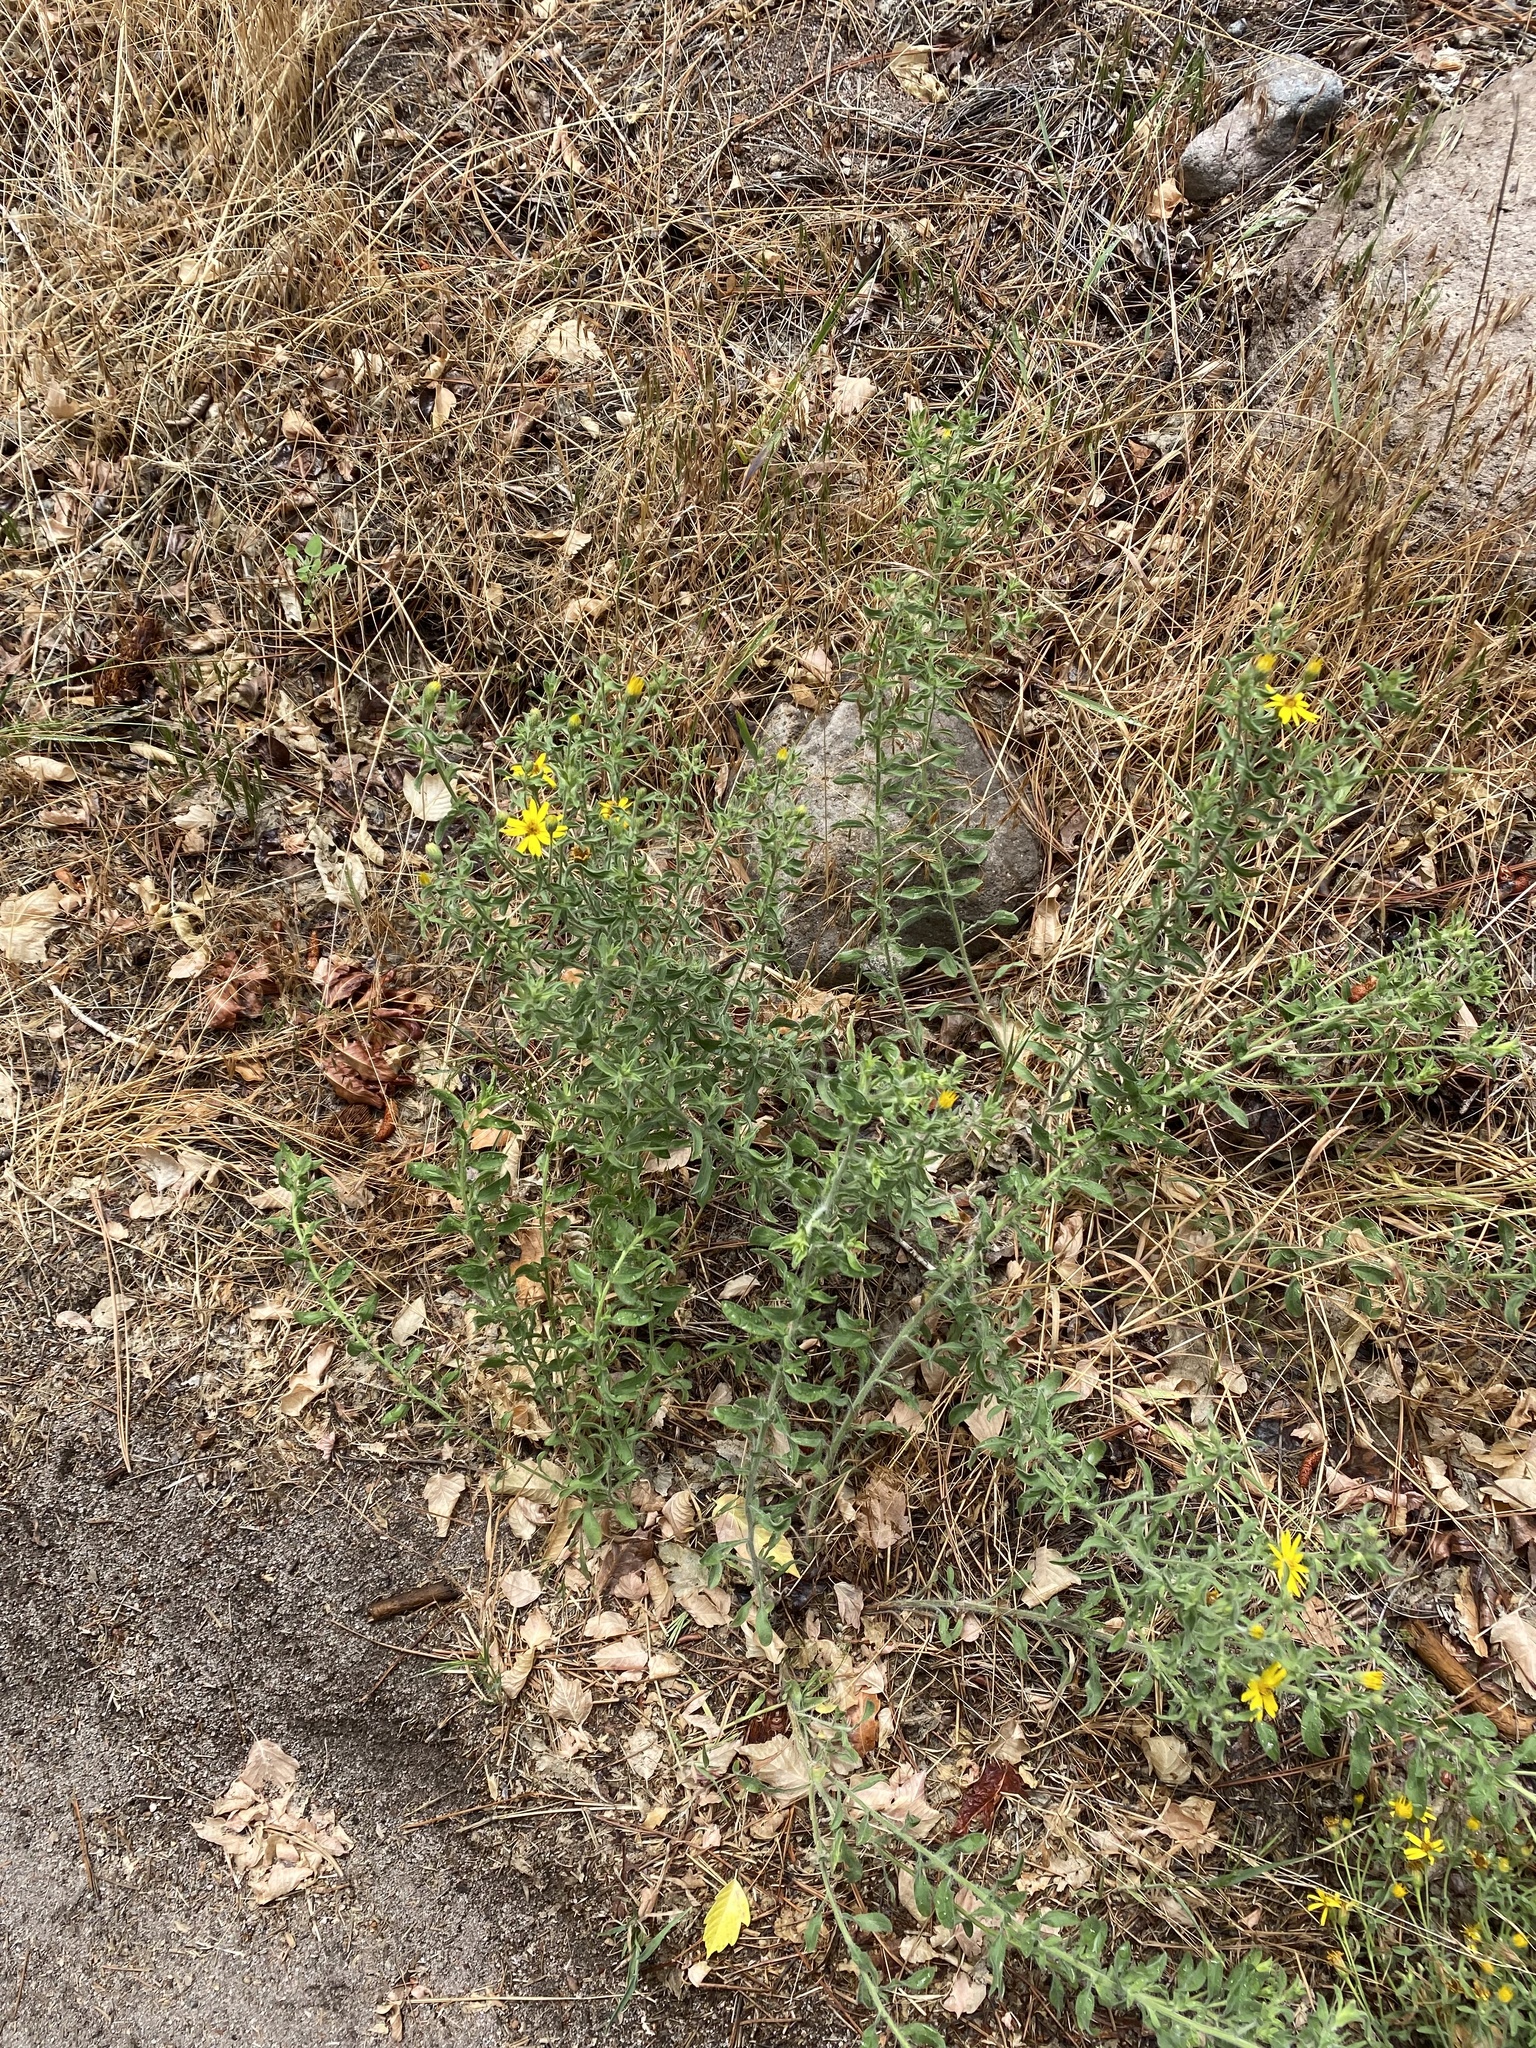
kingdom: Plantae
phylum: Tracheophyta
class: Magnoliopsida
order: Asterales
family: Asteraceae
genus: Heterotheca
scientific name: Heterotheca hirsutissima
